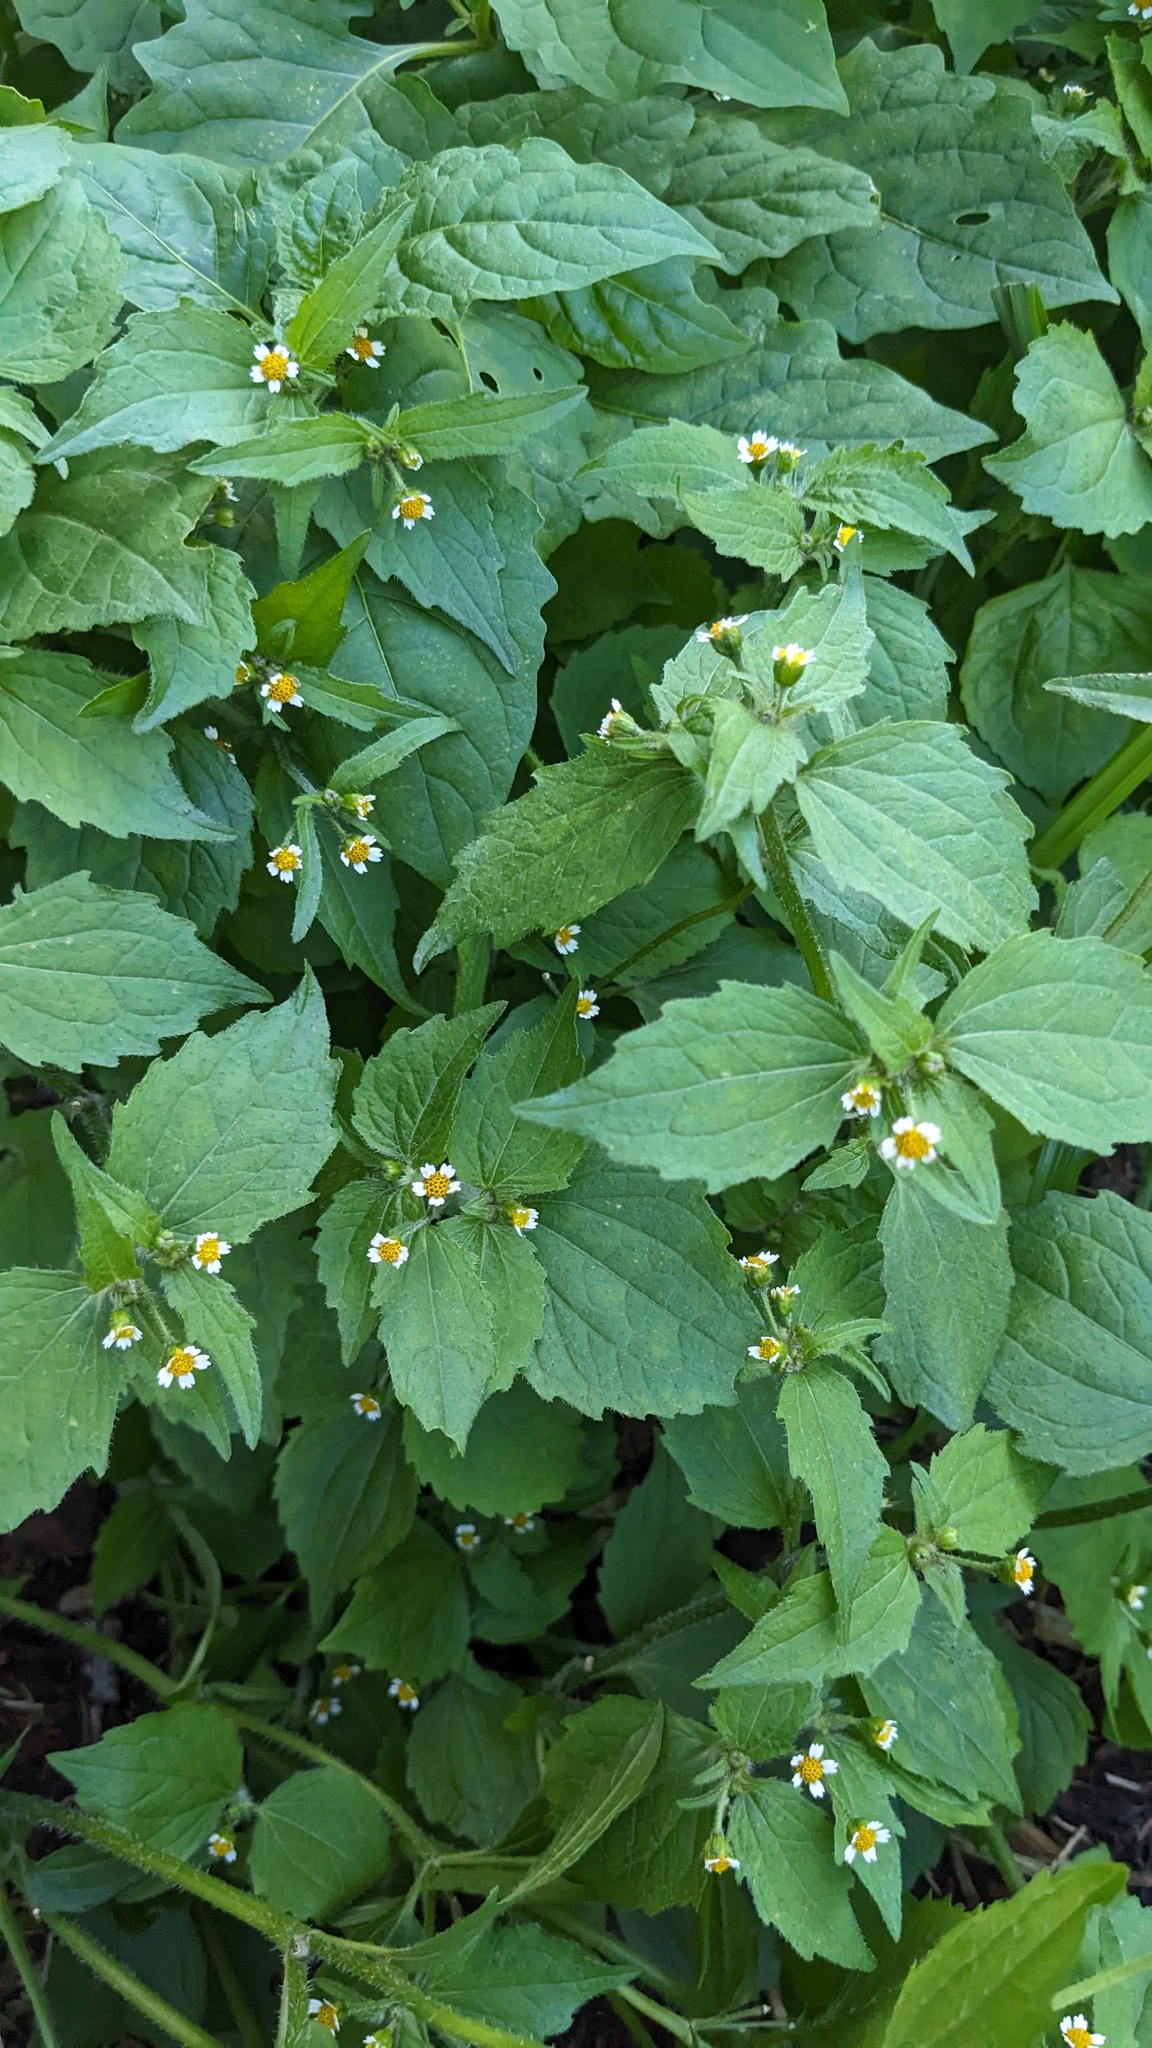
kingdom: Plantae
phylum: Tracheophyta
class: Magnoliopsida
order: Asterales
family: Asteraceae
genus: Galinsoga
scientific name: Galinsoga quadriradiata
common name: Shaggy soldier
